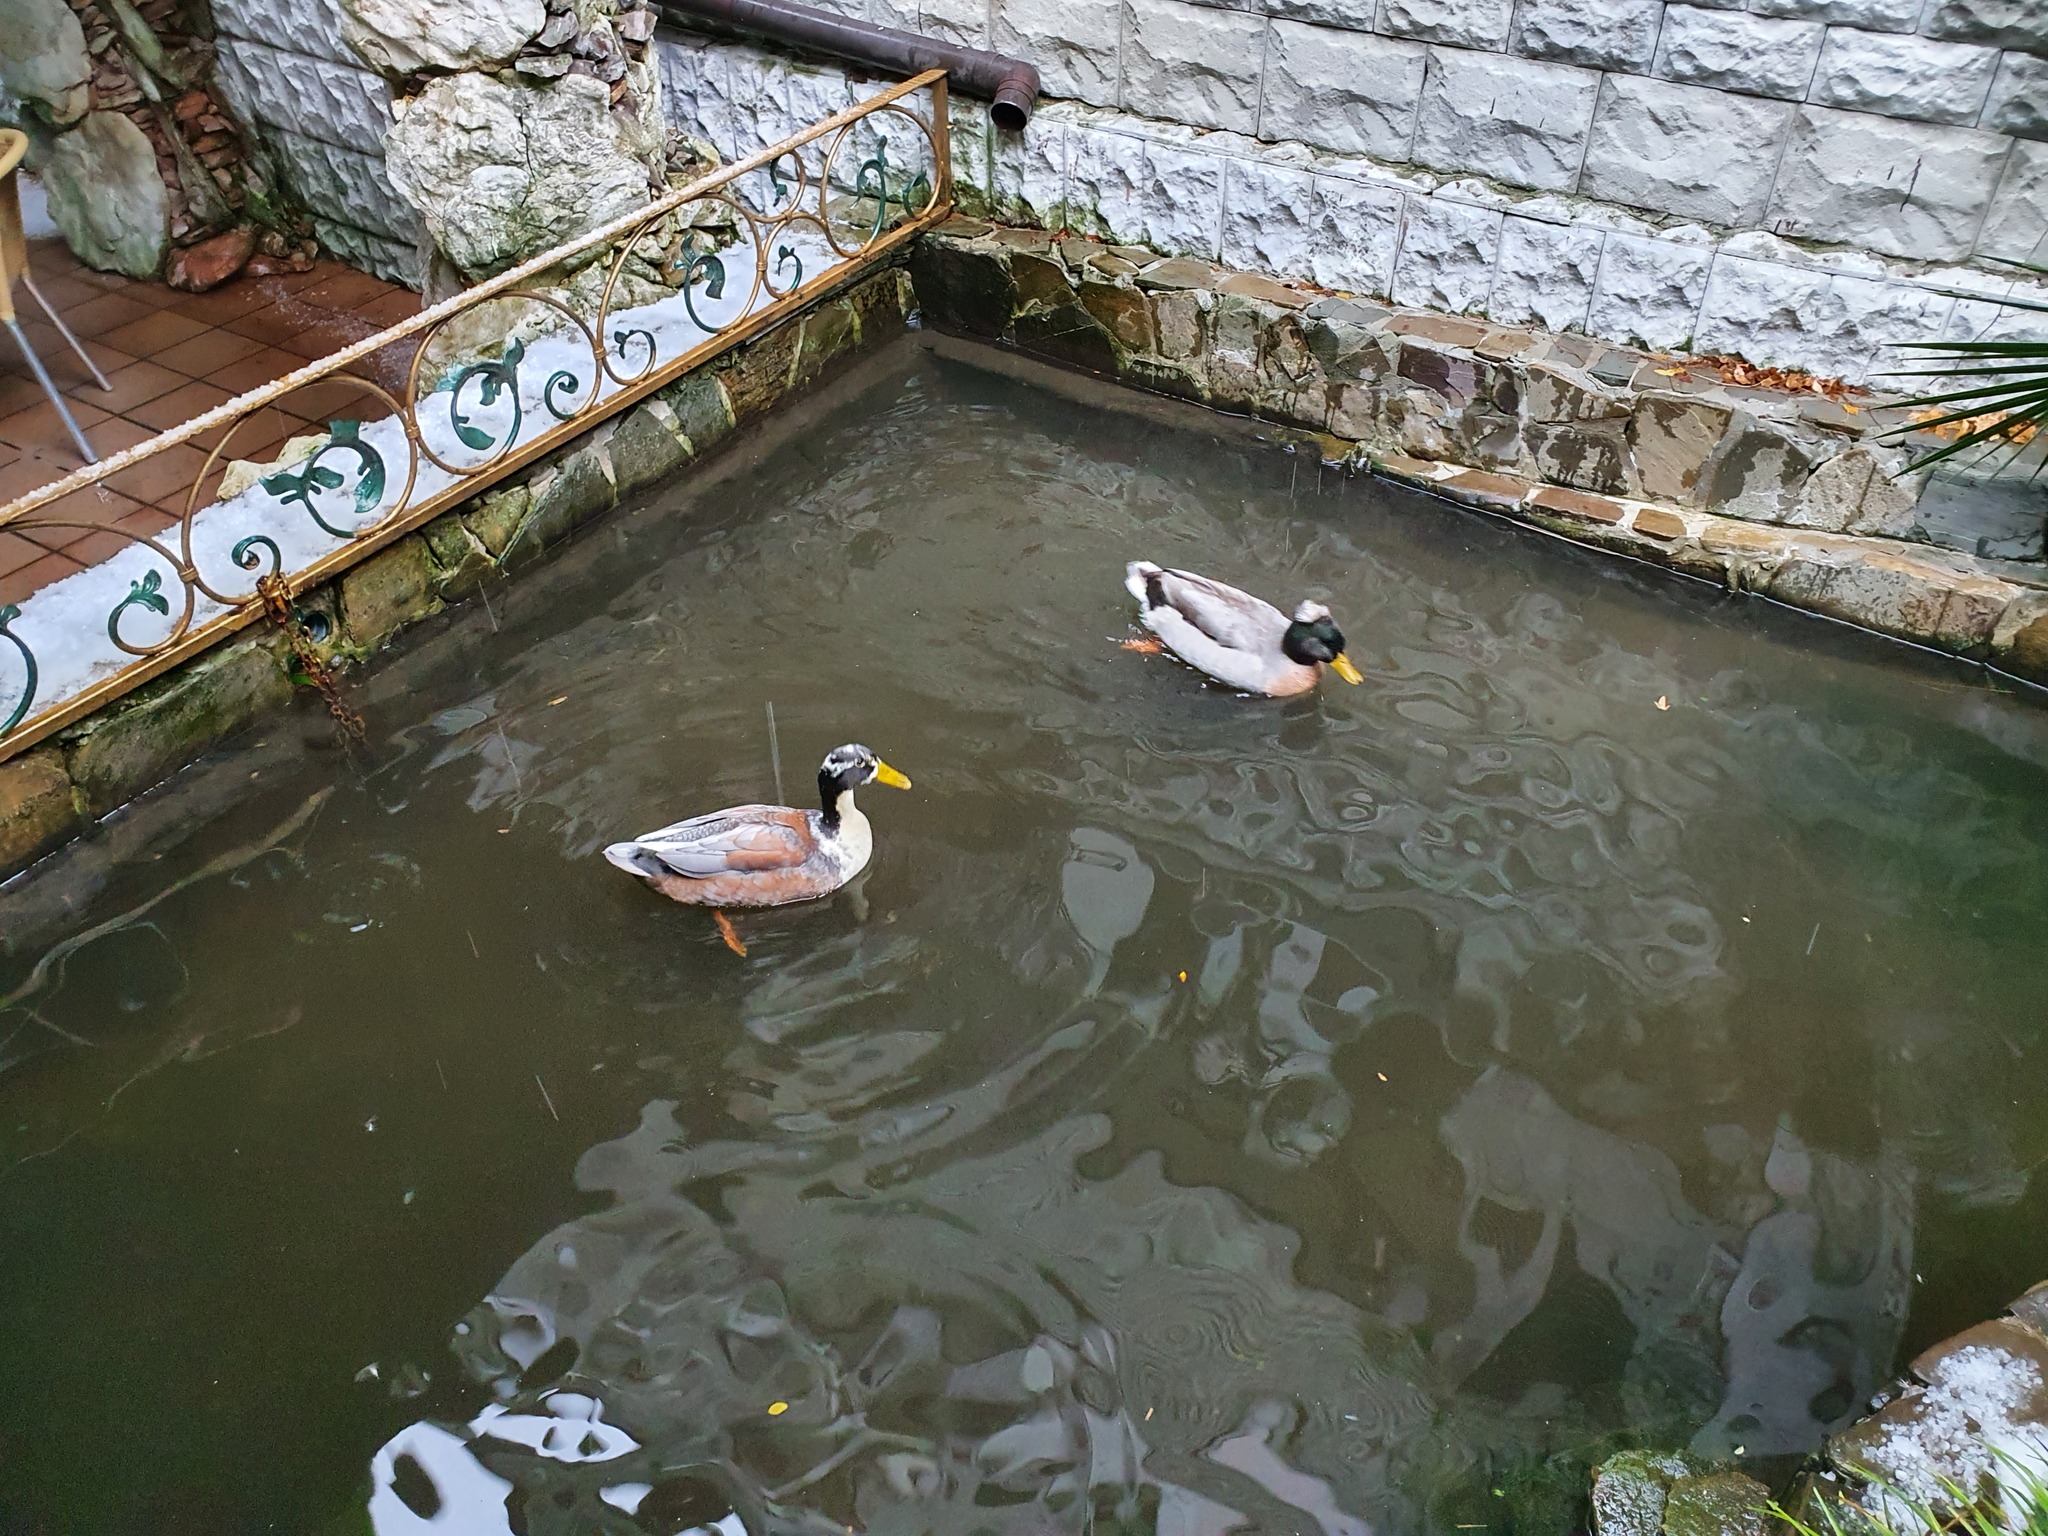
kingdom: Animalia
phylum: Chordata
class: Aves
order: Anseriformes
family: Anatidae
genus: Anas
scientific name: Anas platyrhynchos
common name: Mallard
